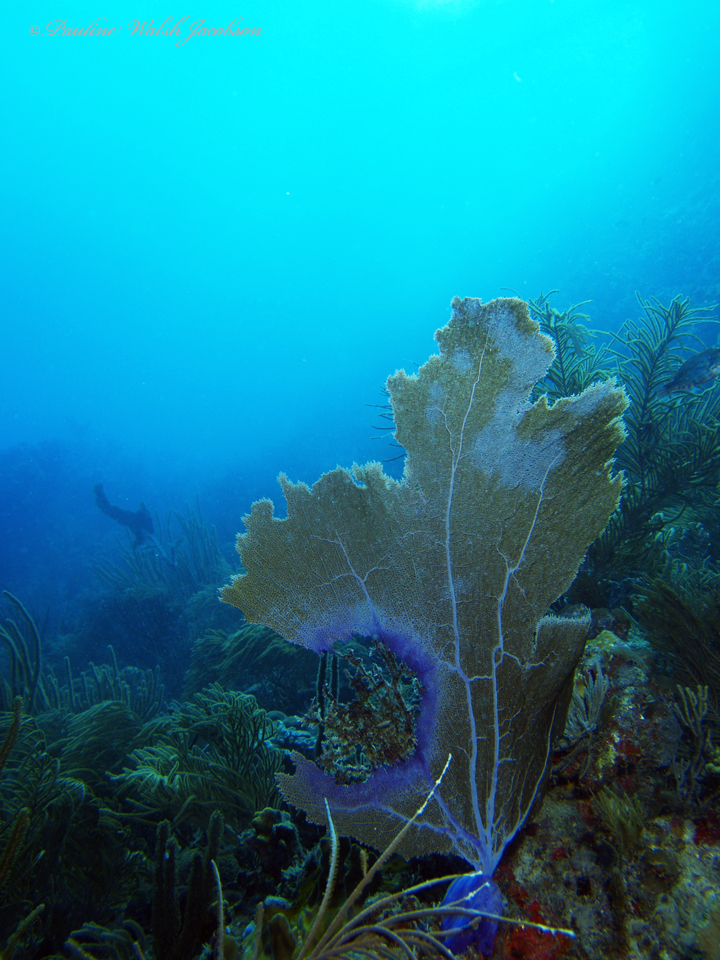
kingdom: Animalia
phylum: Cnidaria
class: Anthozoa
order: Malacalcyonacea
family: Gorgoniidae
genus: Gorgonia
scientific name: Gorgonia ventalina
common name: Common sea fan
